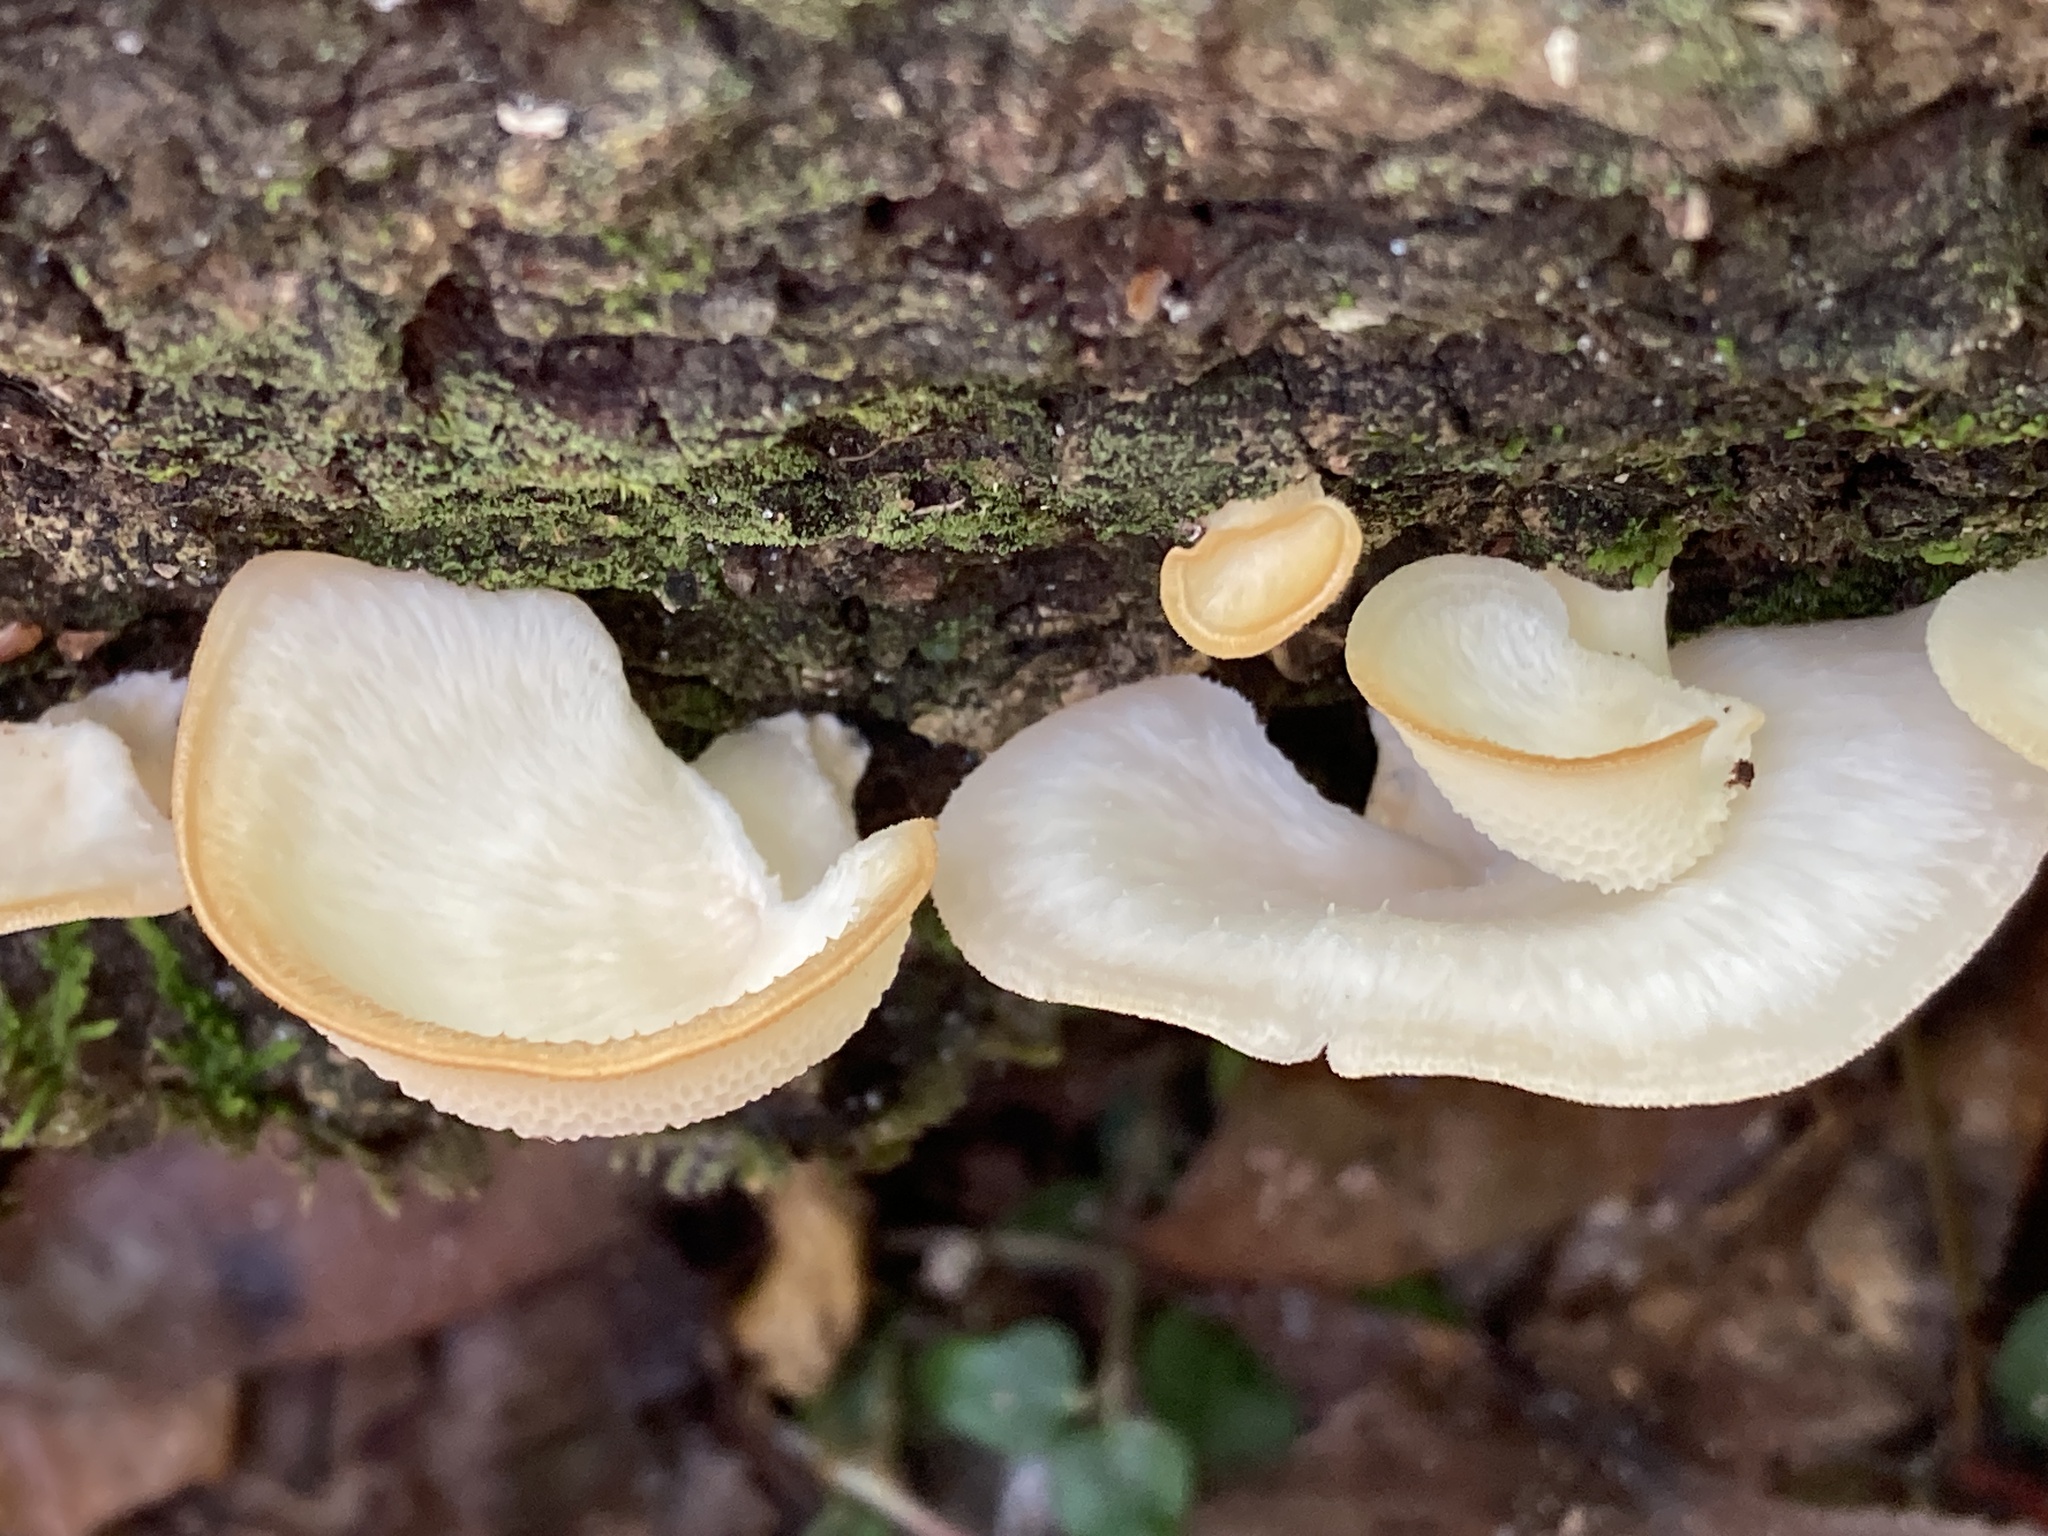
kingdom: Fungi
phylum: Basidiomycota
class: Agaricomycetes
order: Polyporales
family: Polyporaceae
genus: Favolus
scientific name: Favolus tenuiculus
